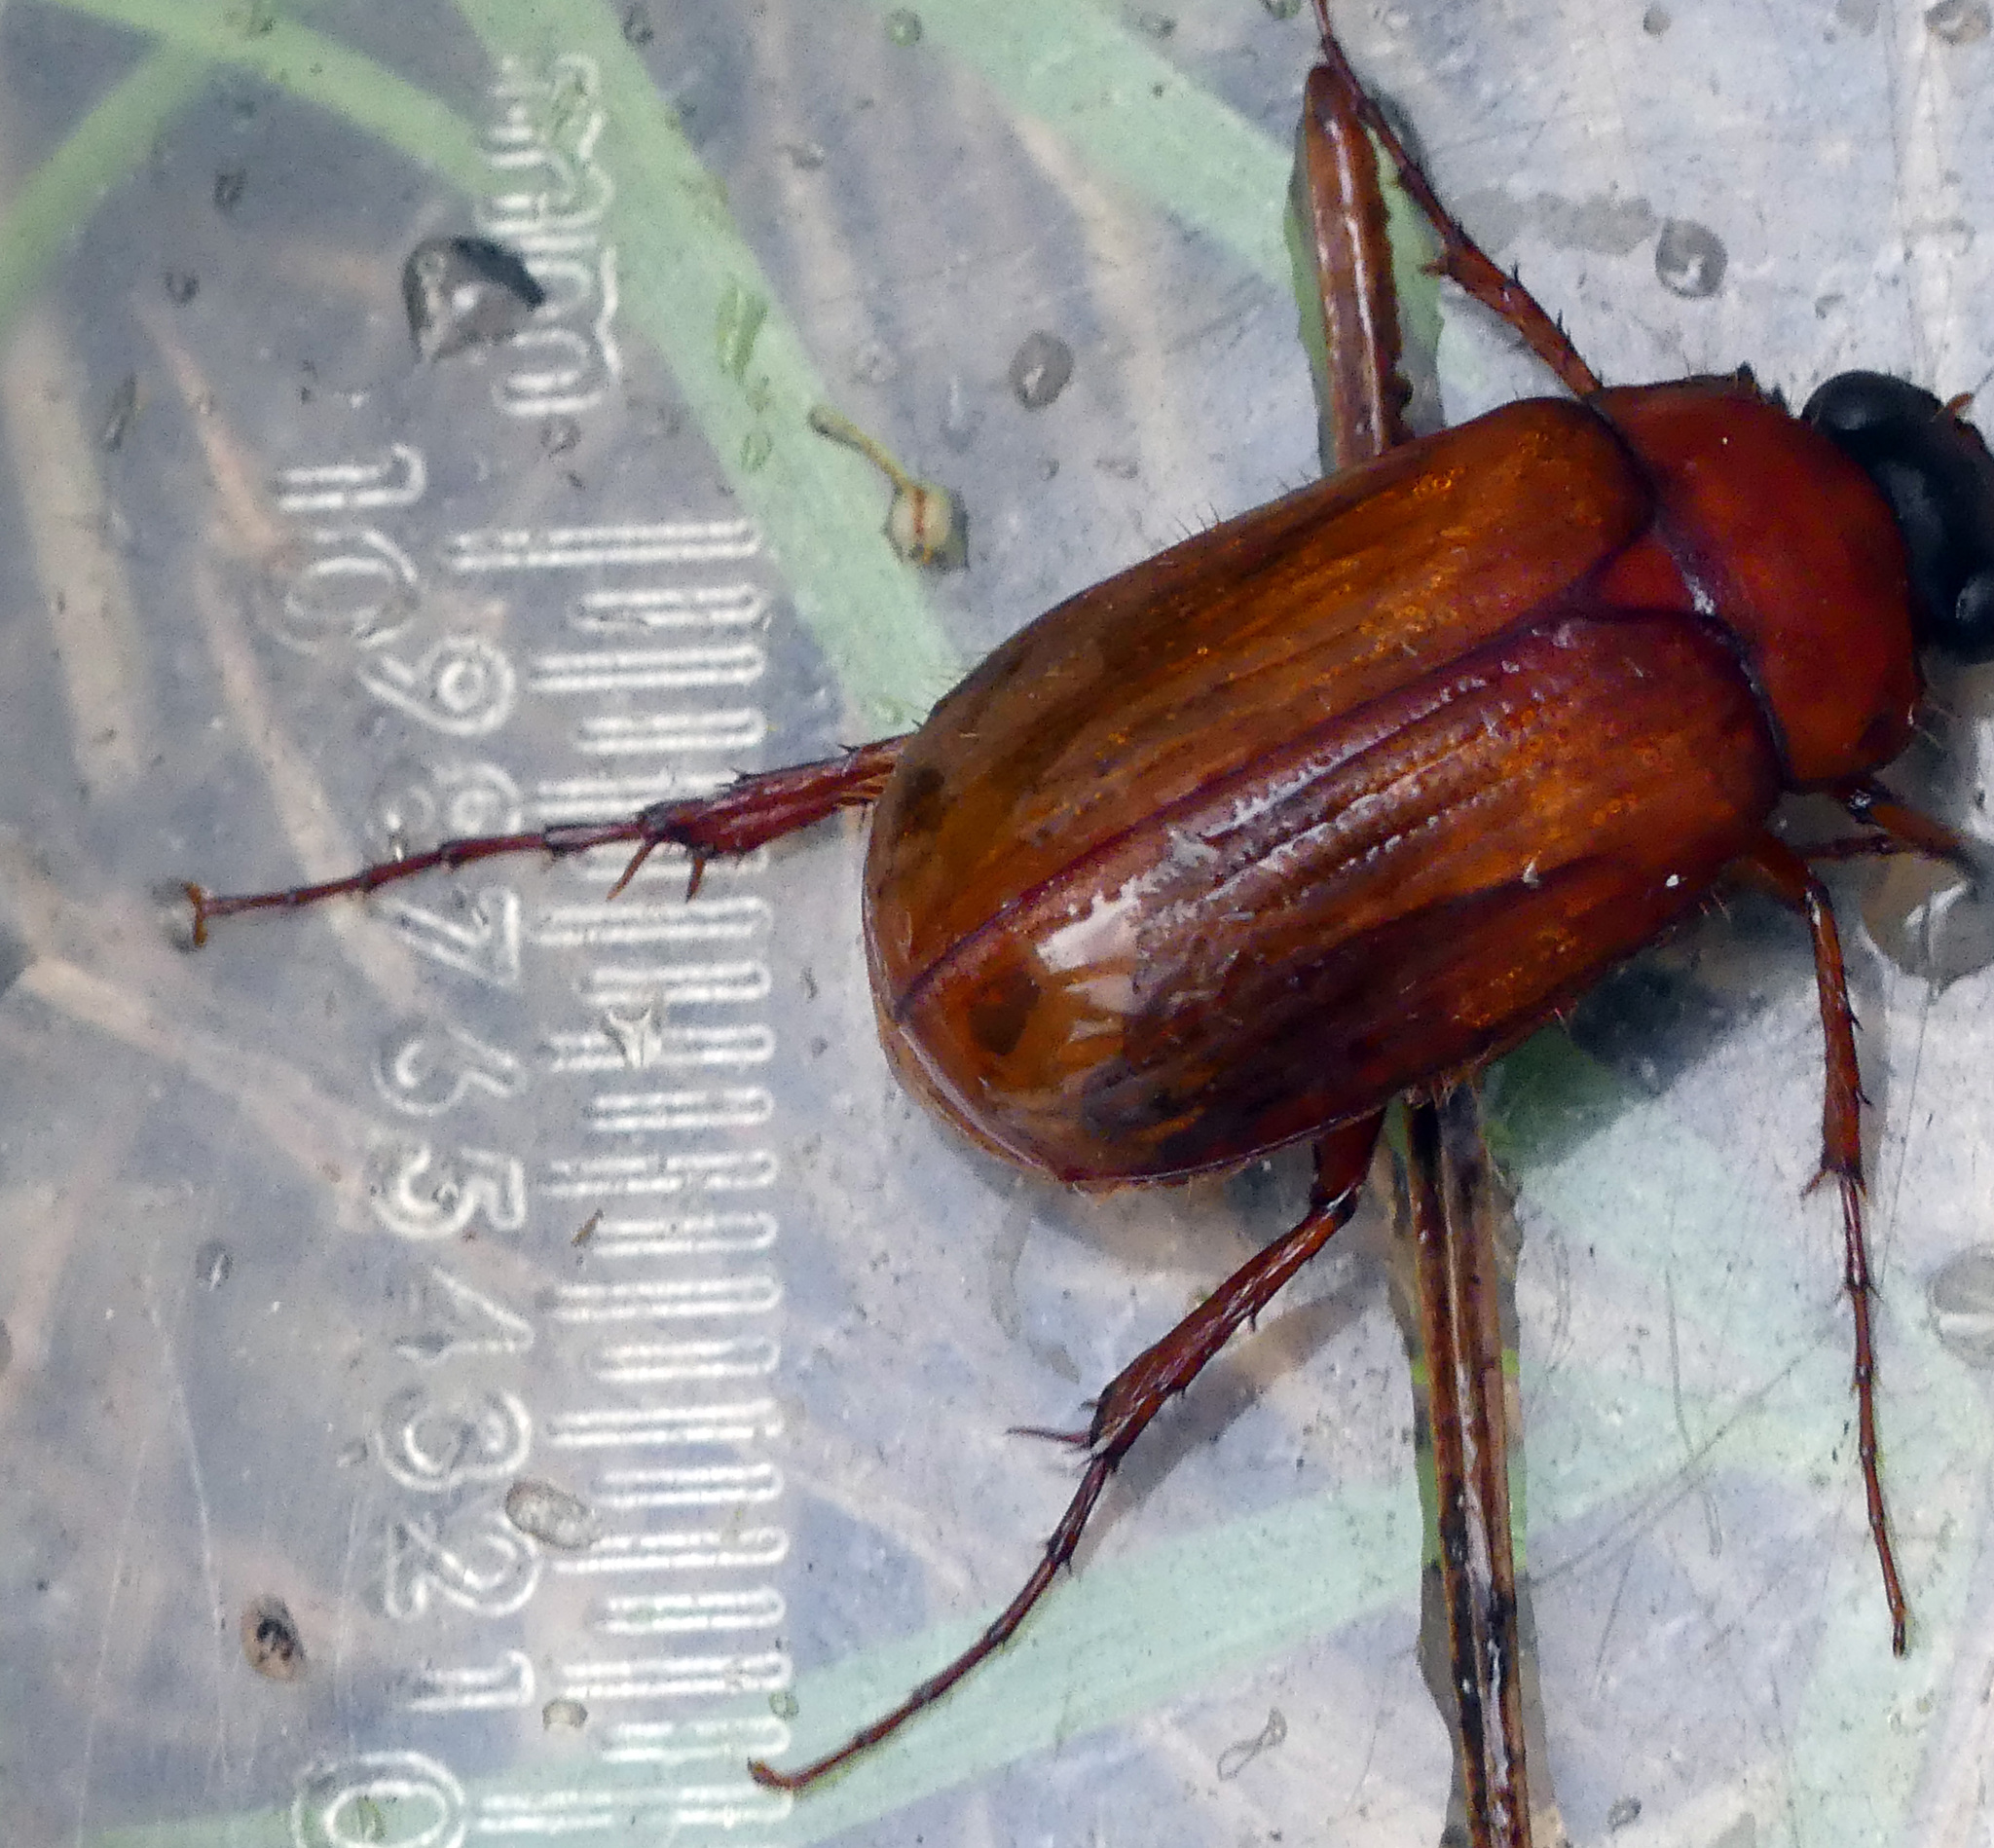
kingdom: Animalia
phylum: Arthropoda
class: Insecta
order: Coleoptera
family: Scarabaeidae
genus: Serica
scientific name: Serica brunnea
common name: Brown chafer
